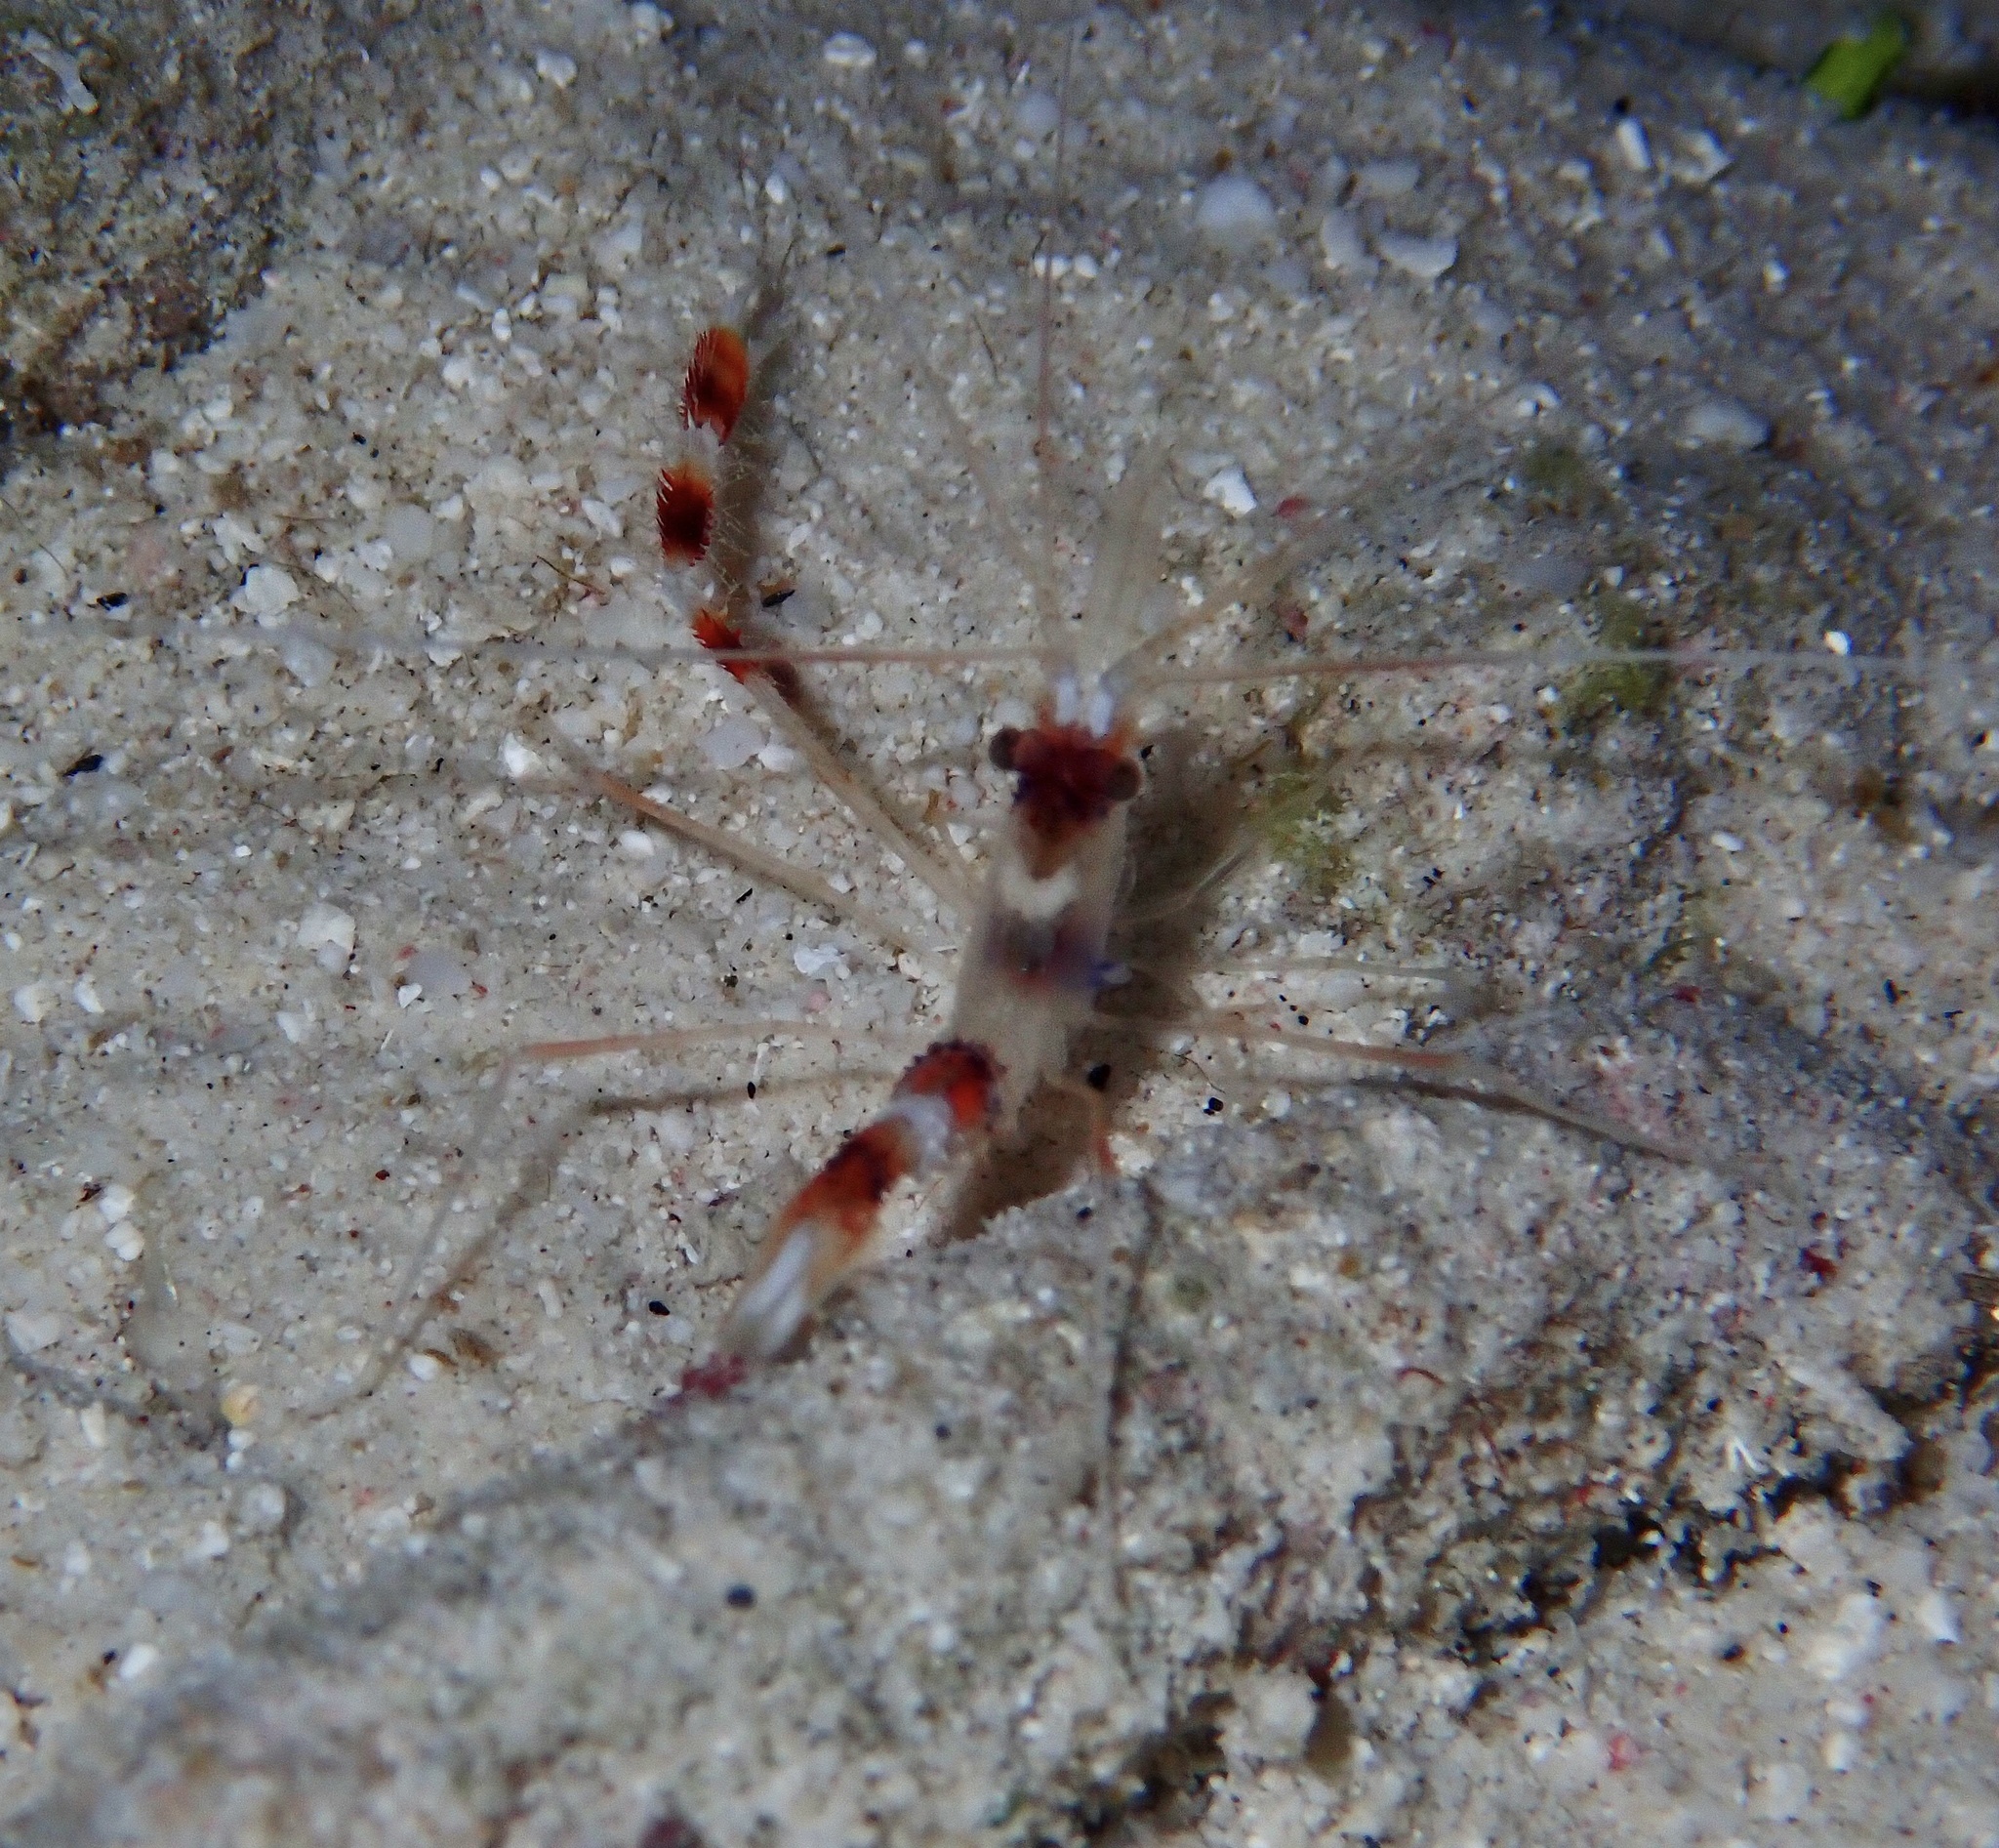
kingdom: Animalia
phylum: Arthropoda
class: Malacostraca
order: Decapoda
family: Stenopodidae
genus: Stenopus
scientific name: Stenopus hispidus
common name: Banded coral shrimp
